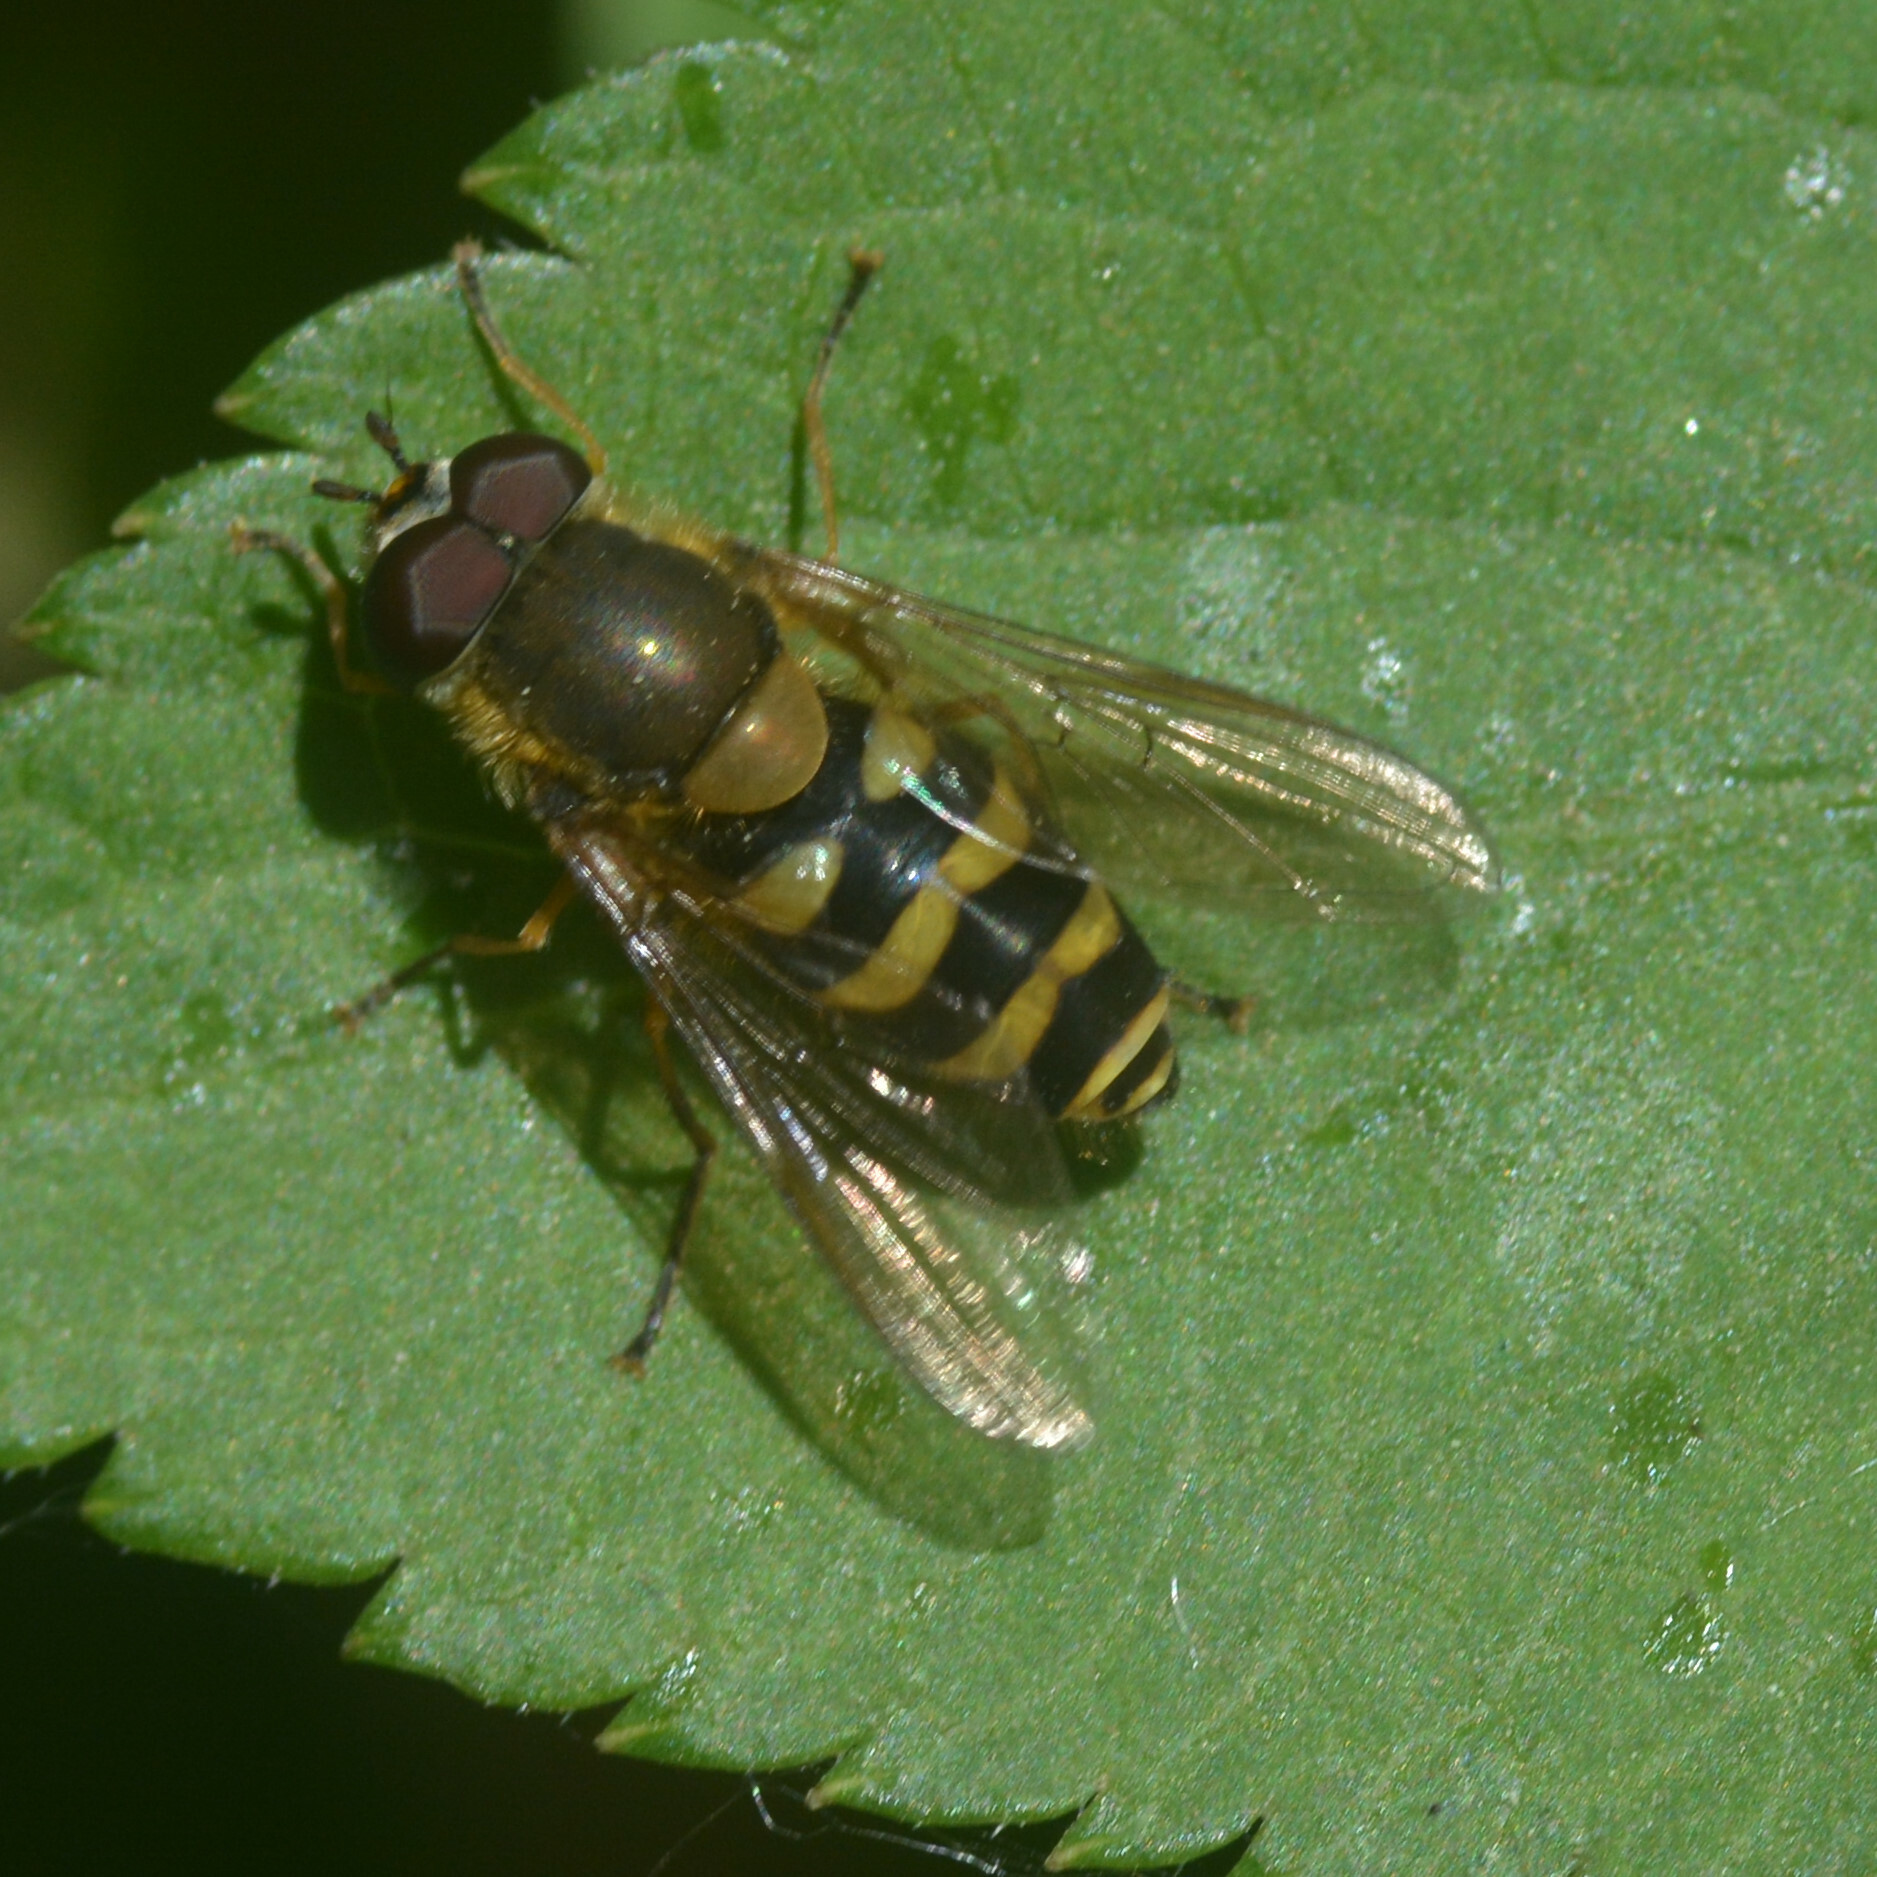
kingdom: Animalia
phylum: Arthropoda
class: Insecta
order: Diptera
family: Syrphidae
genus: Syrphus
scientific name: Syrphus
